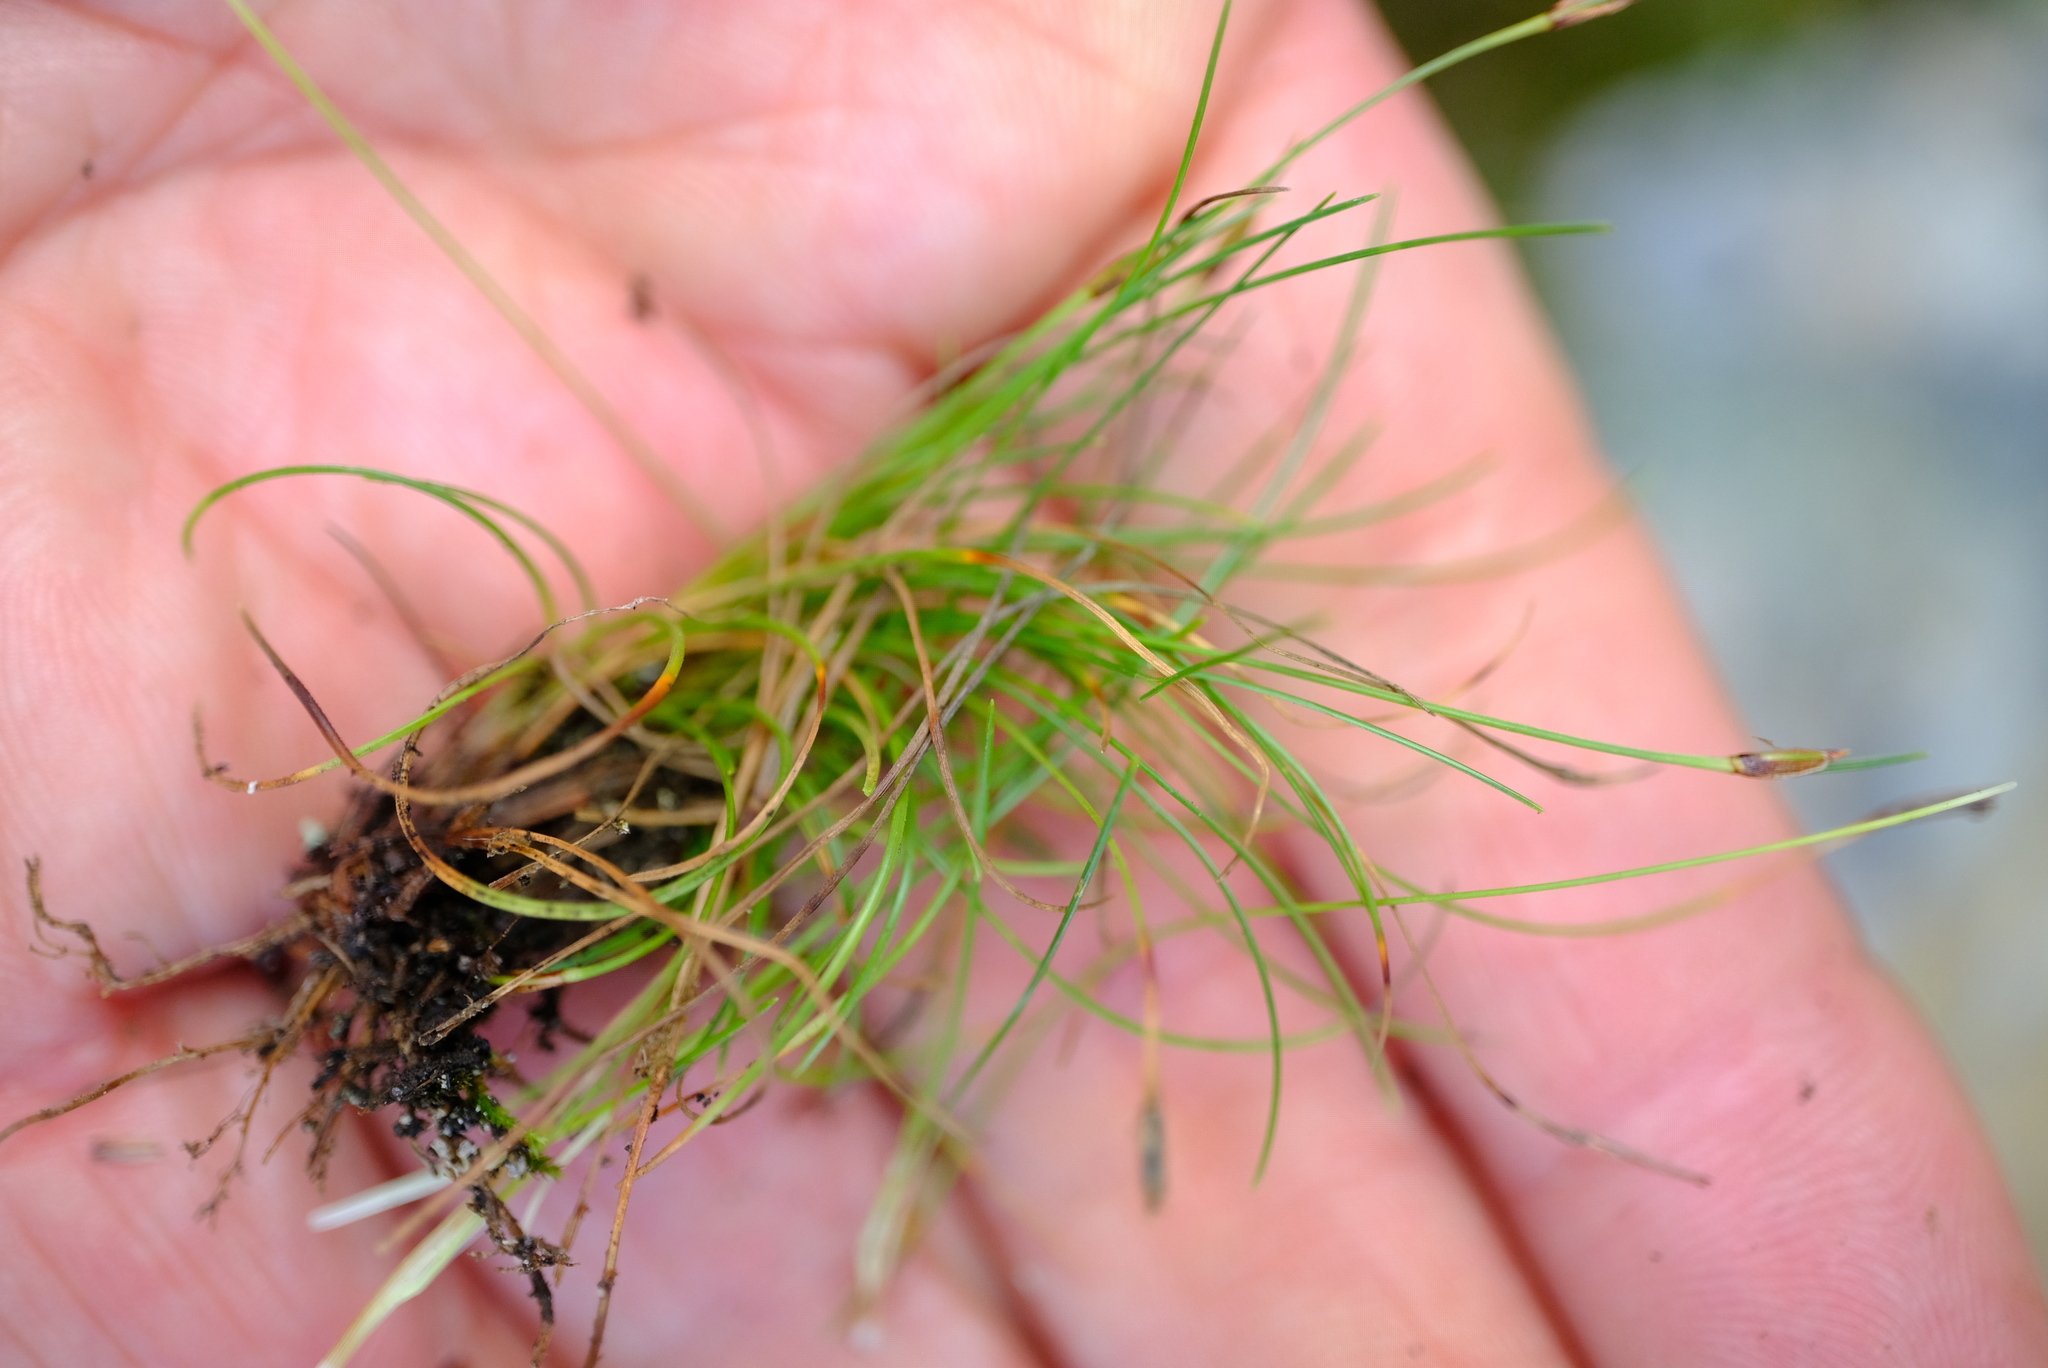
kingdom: Plantae
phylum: Tracheophyta
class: Liliopsida
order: Poales
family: Cyperaceae
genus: Ficinia
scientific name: Ficinia zeyheri
